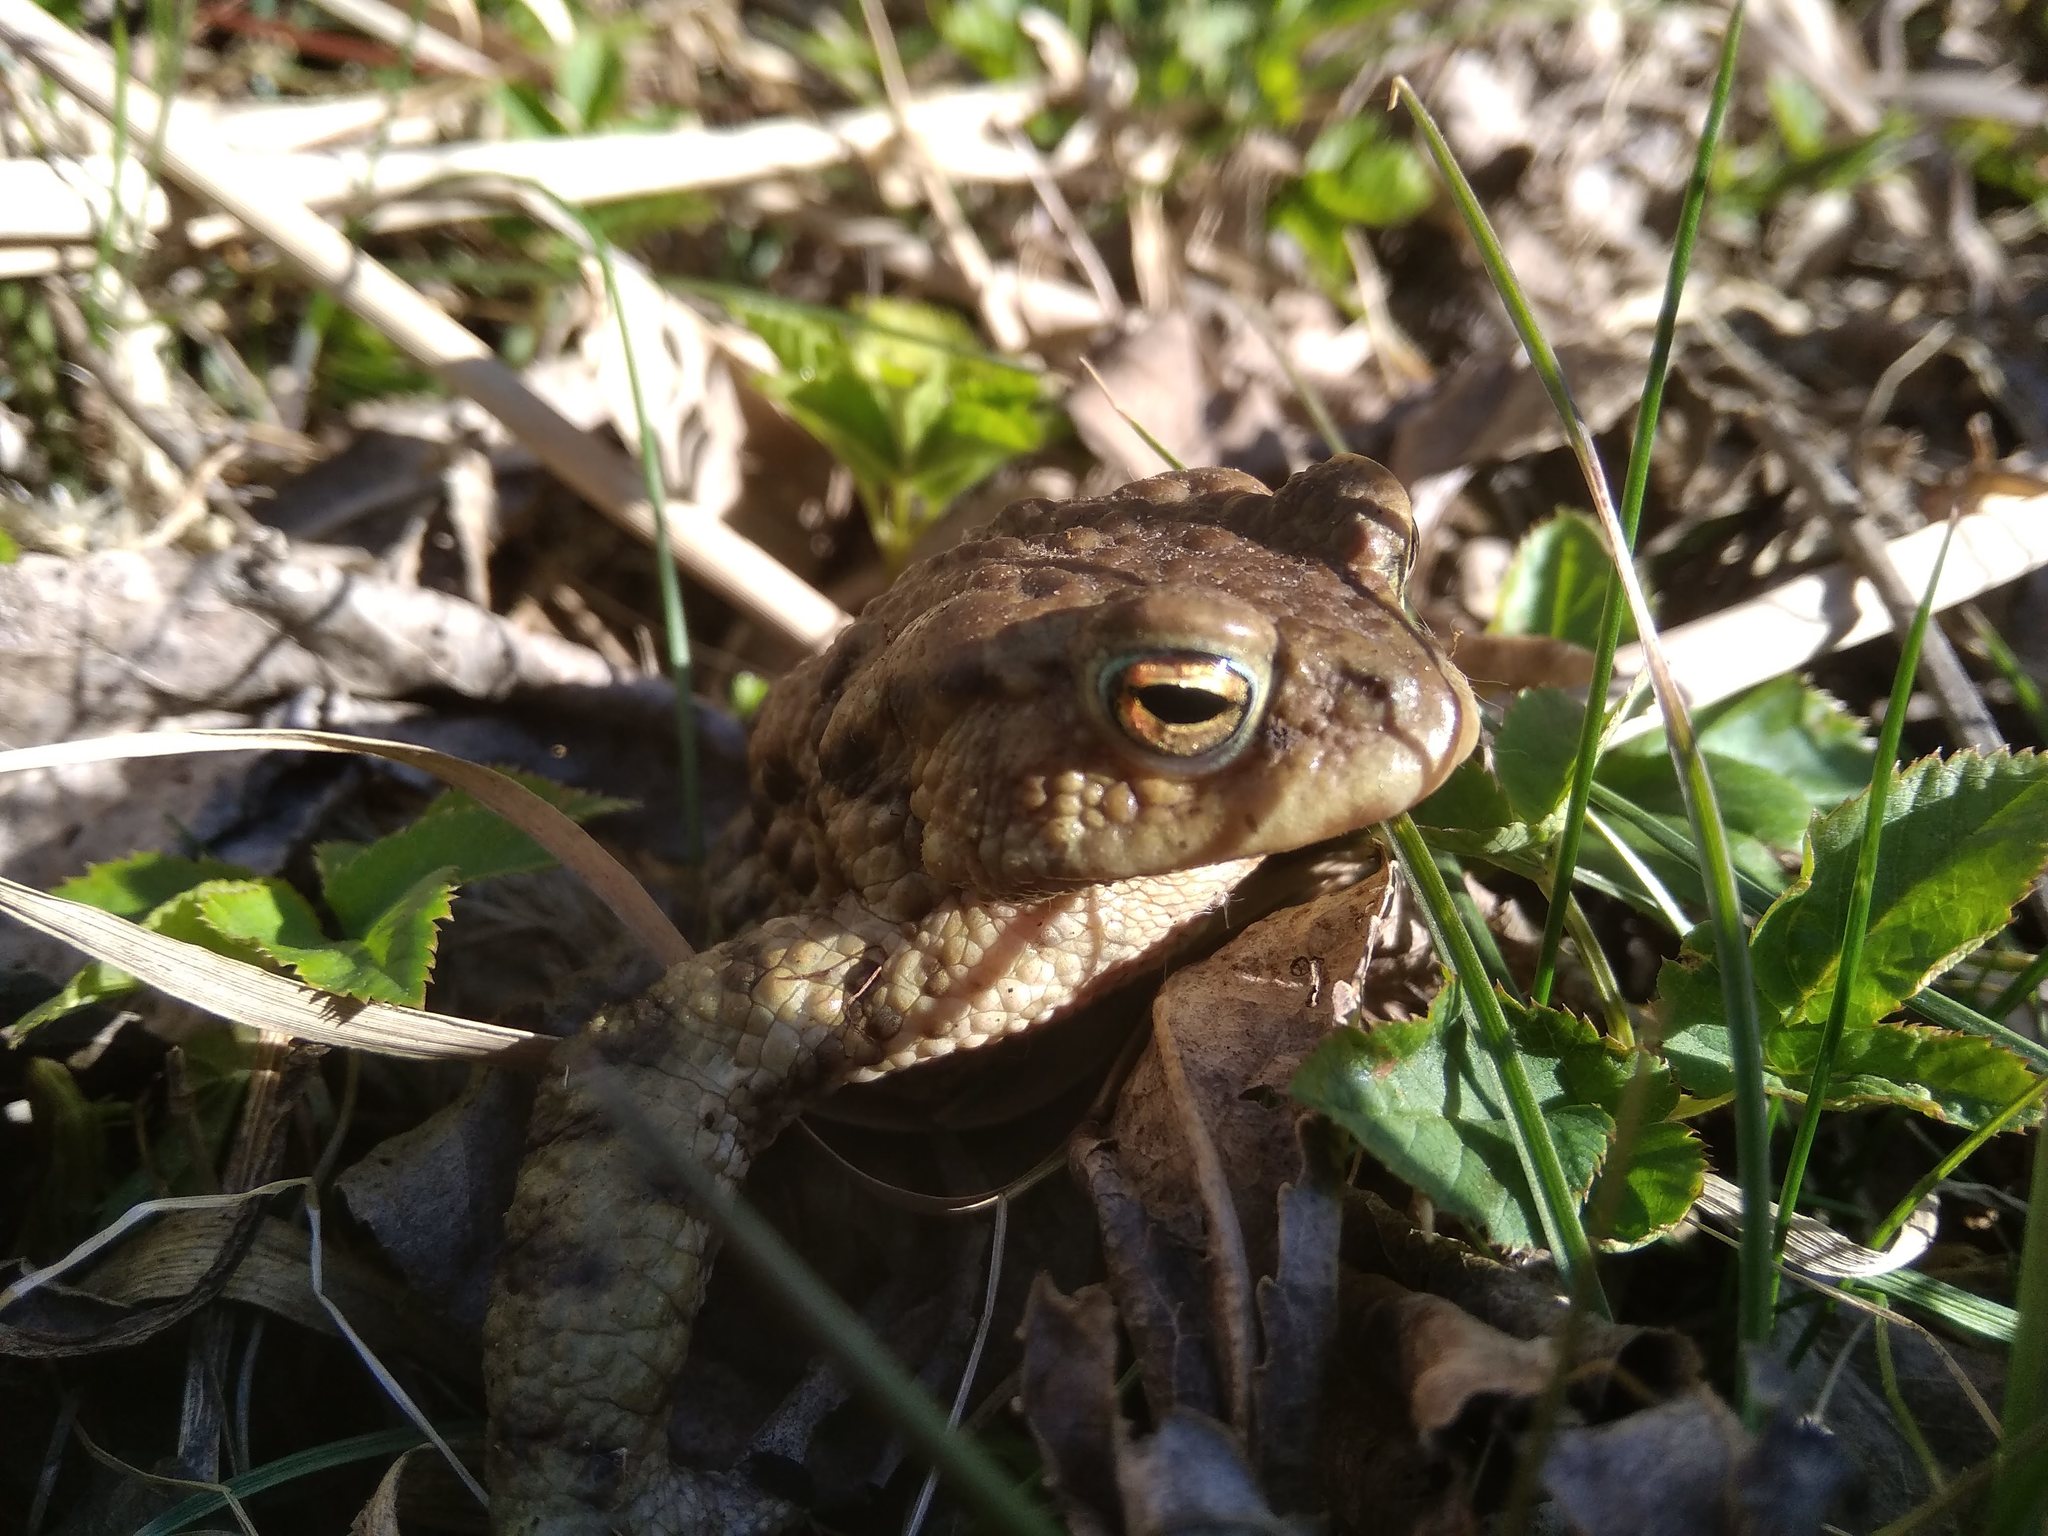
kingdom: Animalia
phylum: Chordata
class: Amphibia
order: Anura
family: Bufonidae
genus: Bufo
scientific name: Bufo bufo
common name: Common toad
